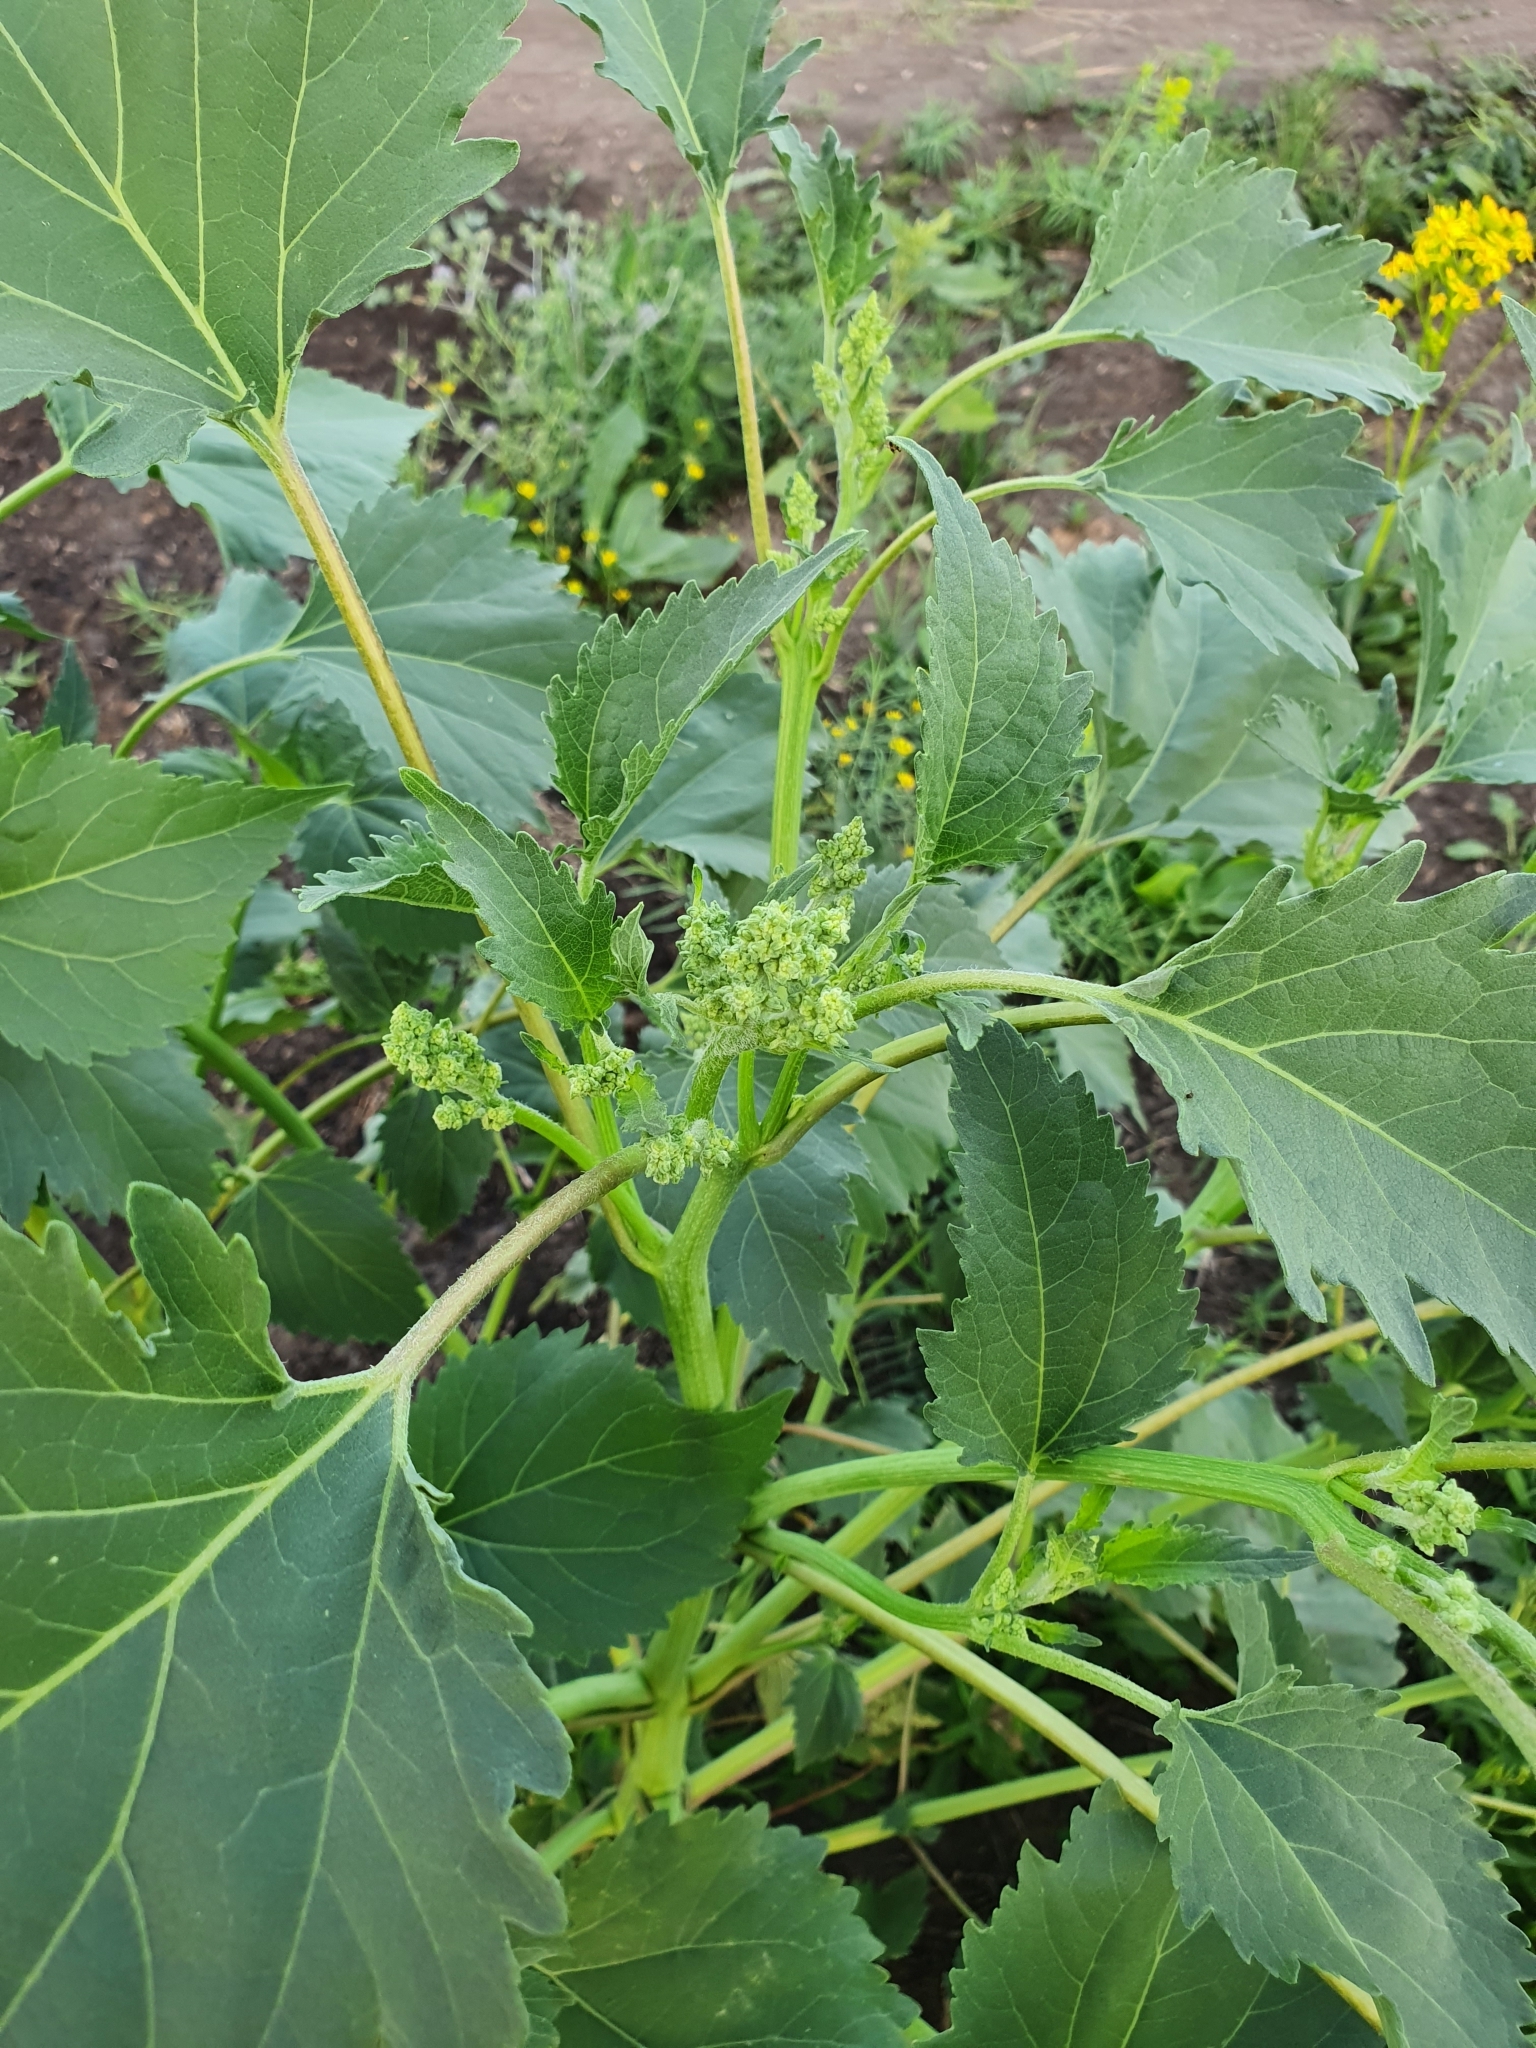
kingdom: Plantae
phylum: Tracheophyta
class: Magnoliopsida
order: Asterales
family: Asteraceae
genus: Cyclachaena
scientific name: Cyclachaena xanthiifolia
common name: Giant sumpweed
